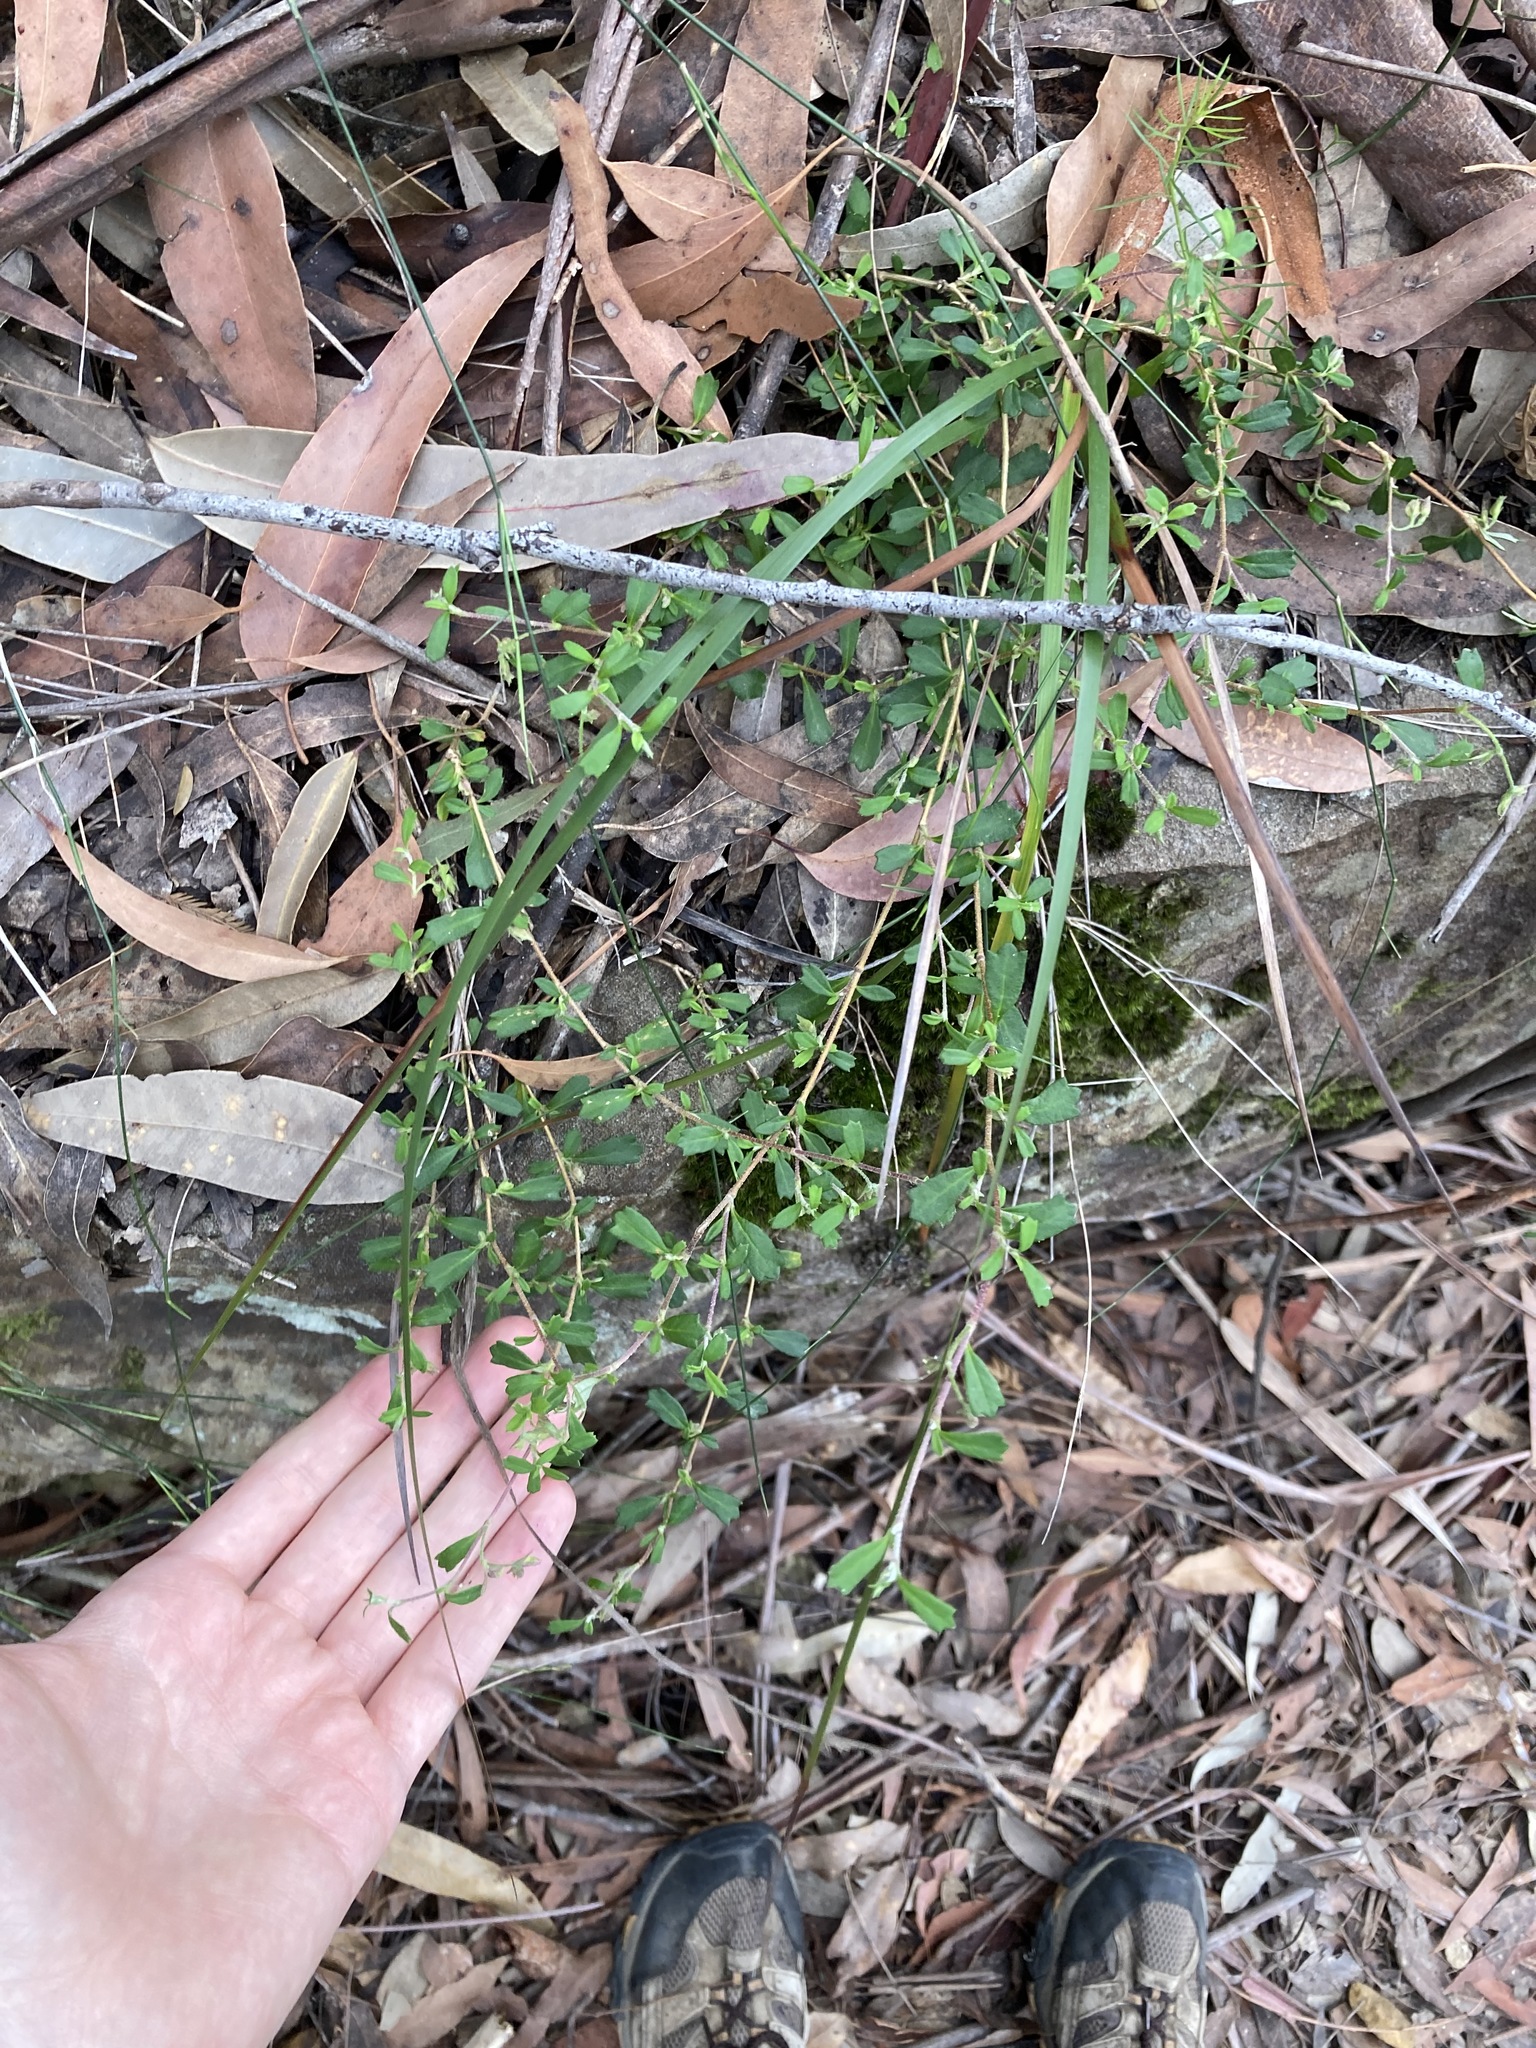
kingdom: Plantae
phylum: Tracheophyta
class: Magnoliopsida
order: Apiales
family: Apiaceae
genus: Xanthosia
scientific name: Xanthosia tridentata
